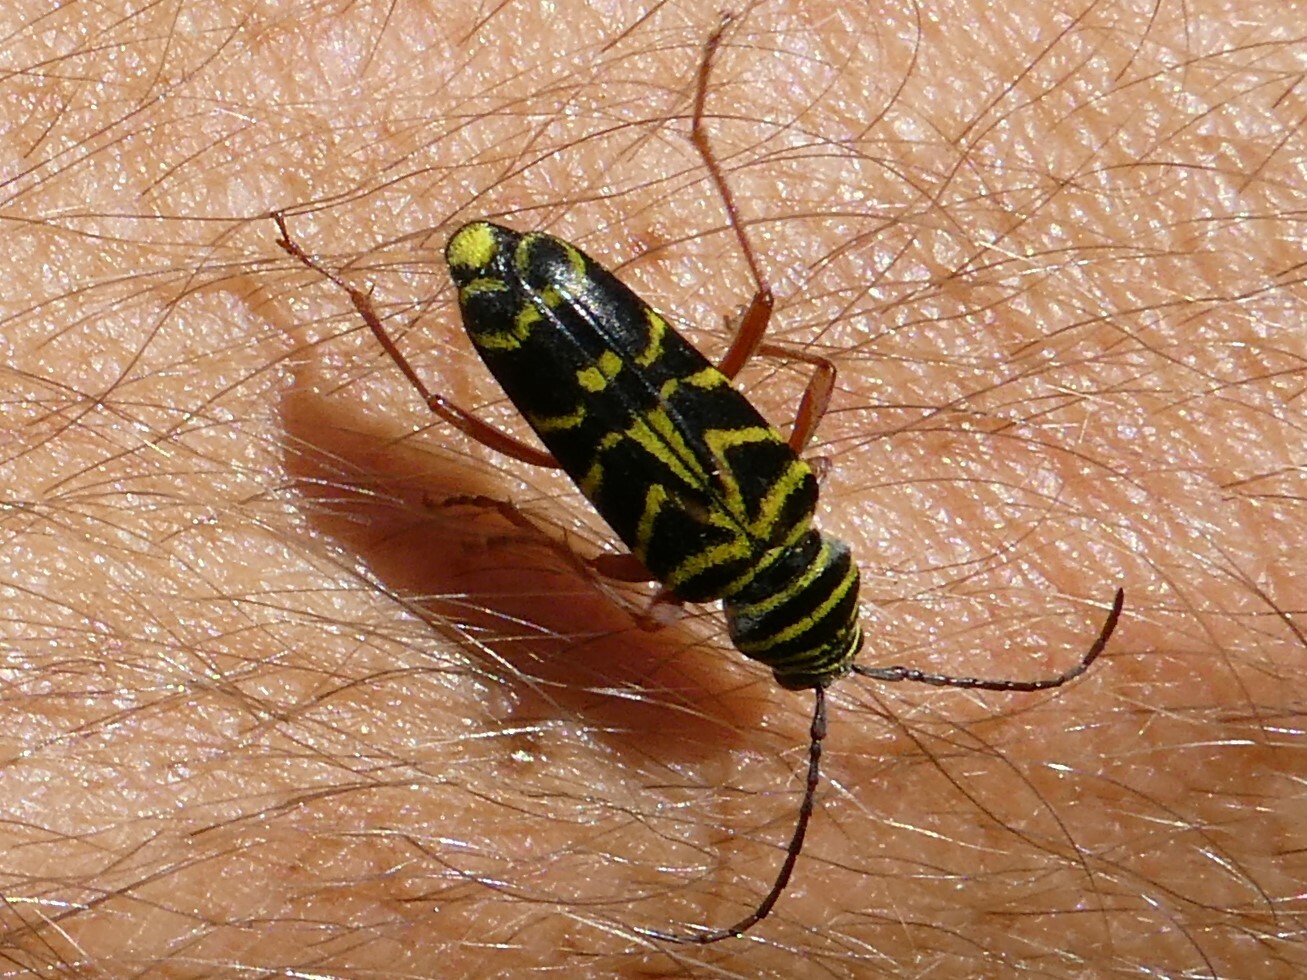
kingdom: Animalia
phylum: Arthropoda
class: Insecta
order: Coleoptera
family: Cerambycidae
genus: Megacyllene
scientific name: Megacyllene robiniae
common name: Locust borer
